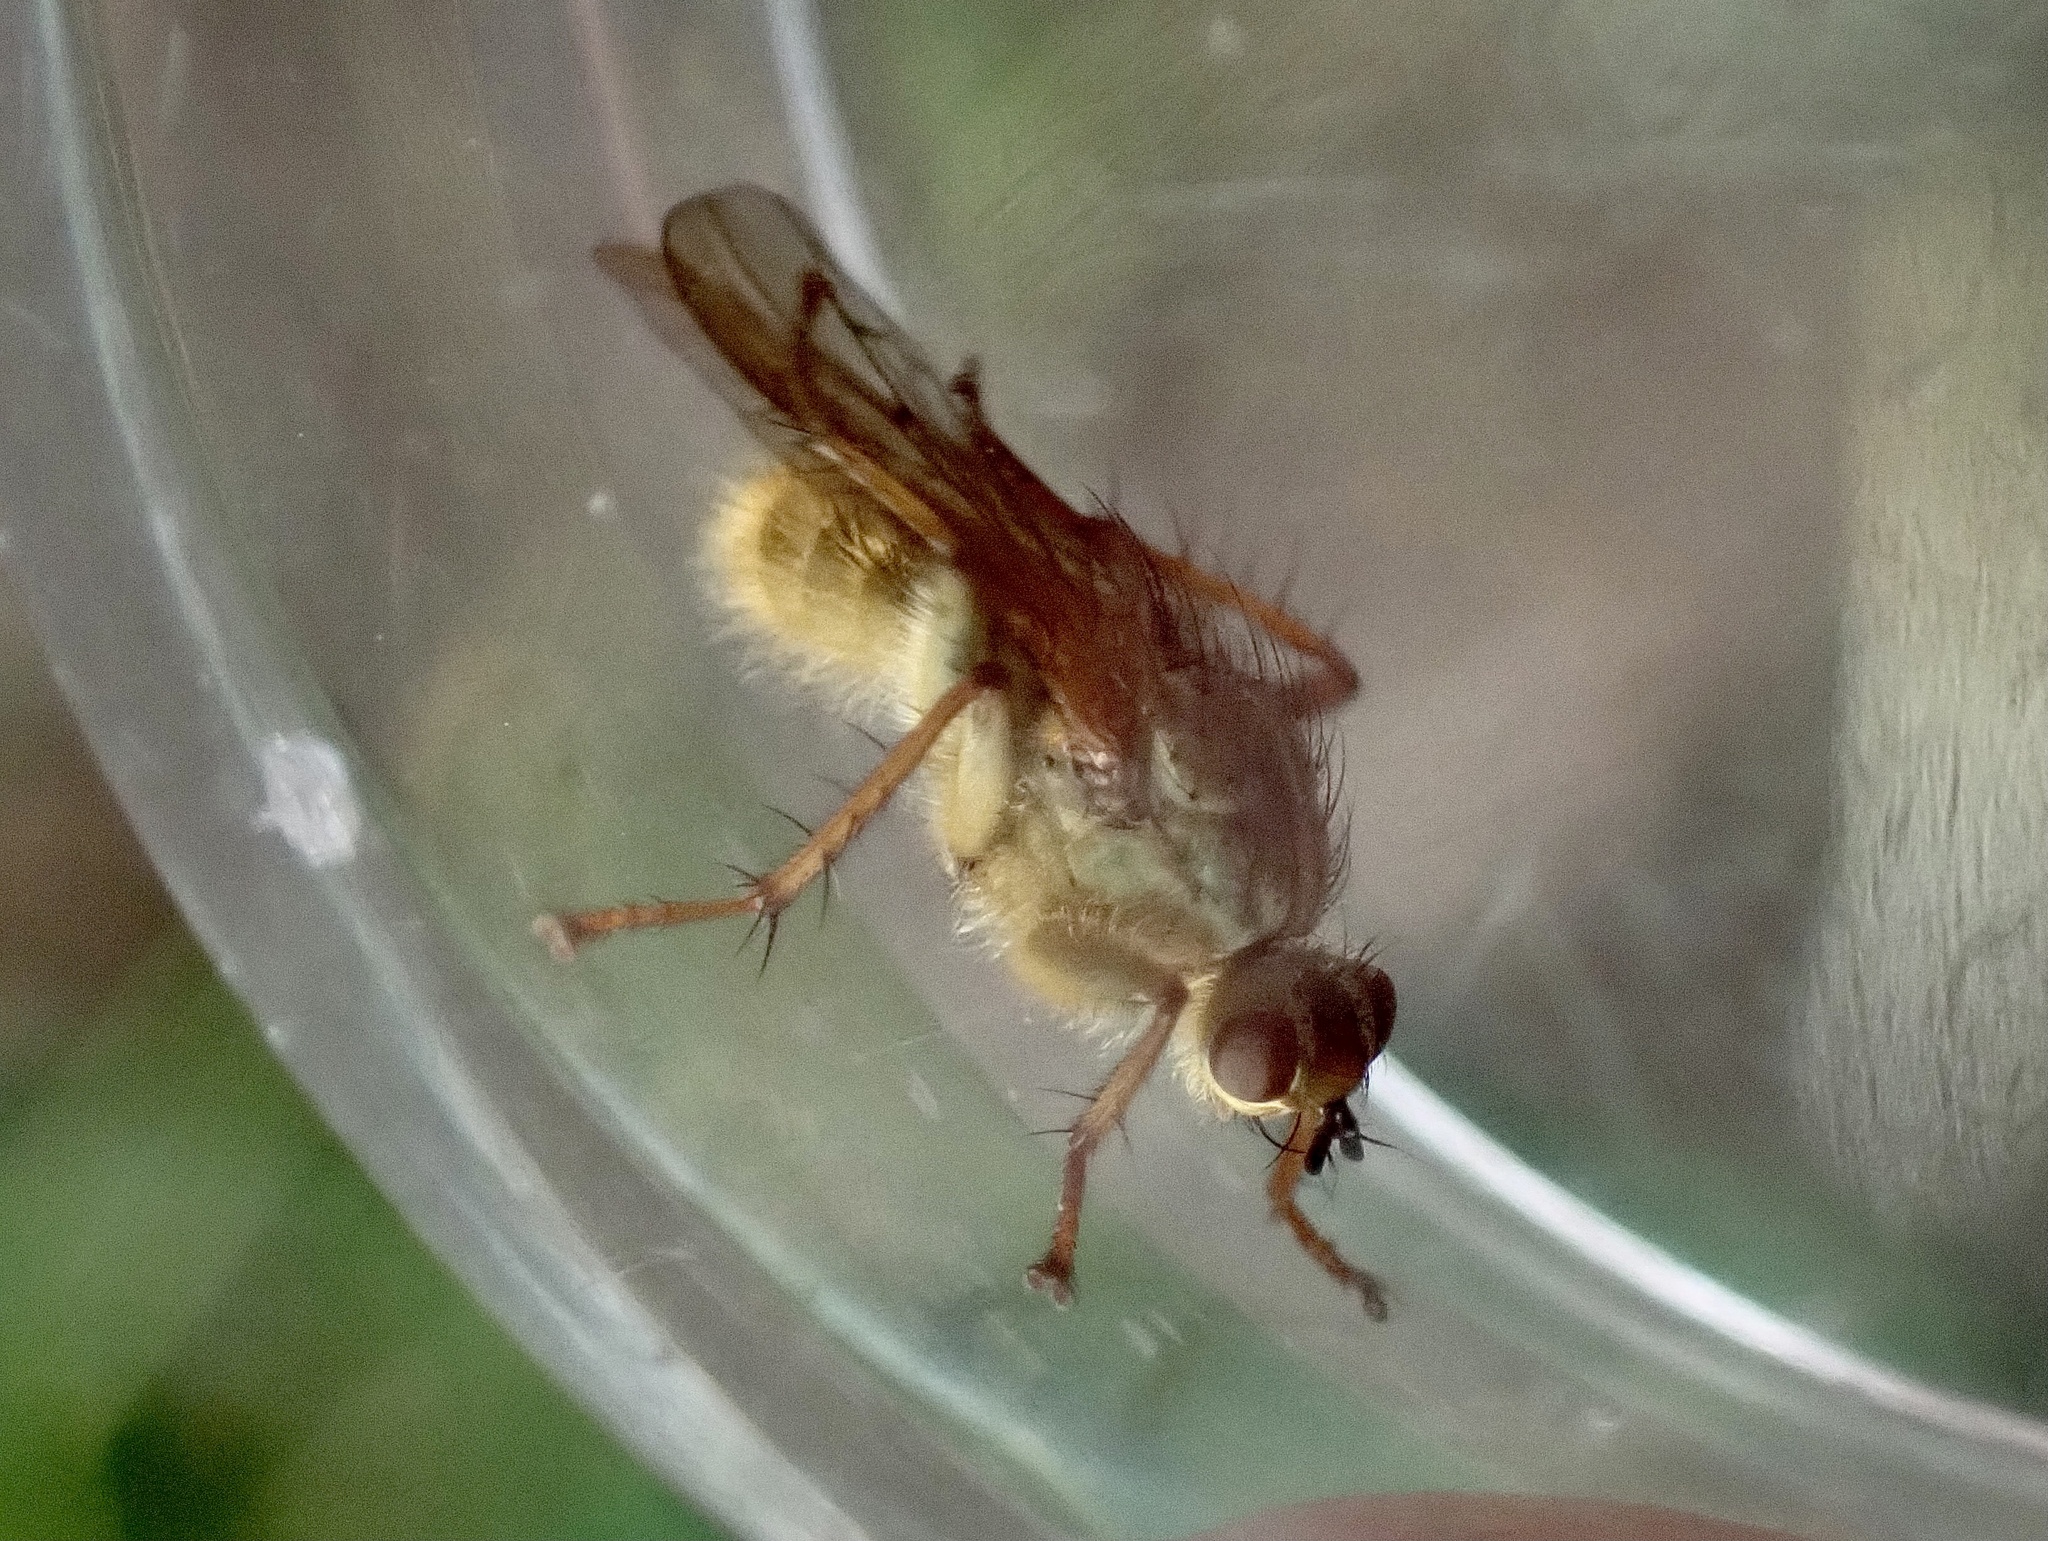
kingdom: Animalia
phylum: Arthropoda
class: Insecta
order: Diptera
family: Scathophagidae
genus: Scathophaga
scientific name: Scathophaga stercoraria
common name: Yellow dung fly
